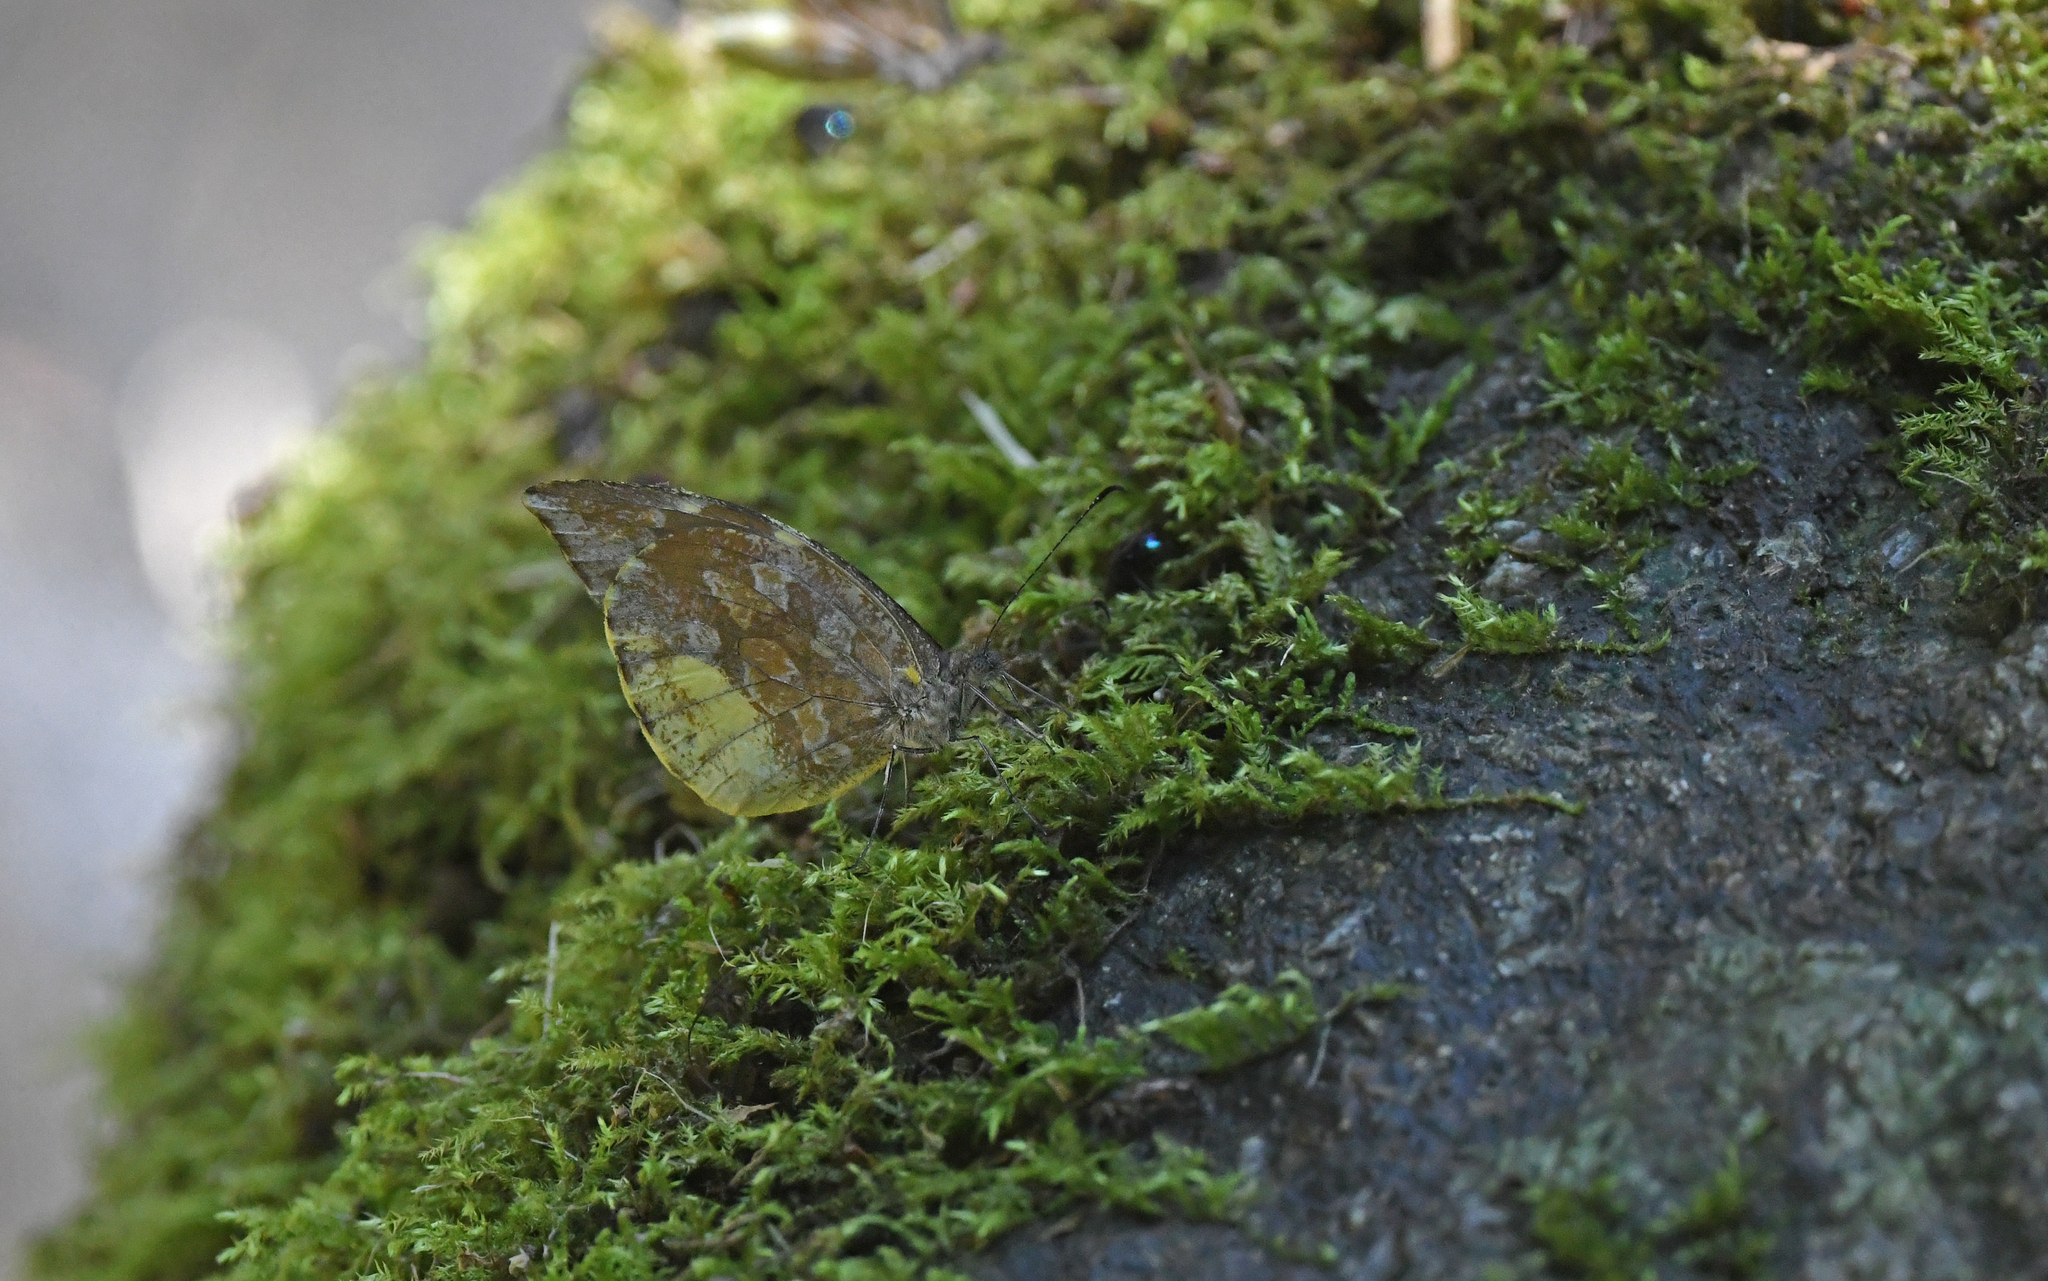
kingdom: Animalia
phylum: Arthropoda
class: Insecta
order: Lepidoptera
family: Pieridae
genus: Lieinix
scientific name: Lieinix nemesis
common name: Frosted mimic-white
